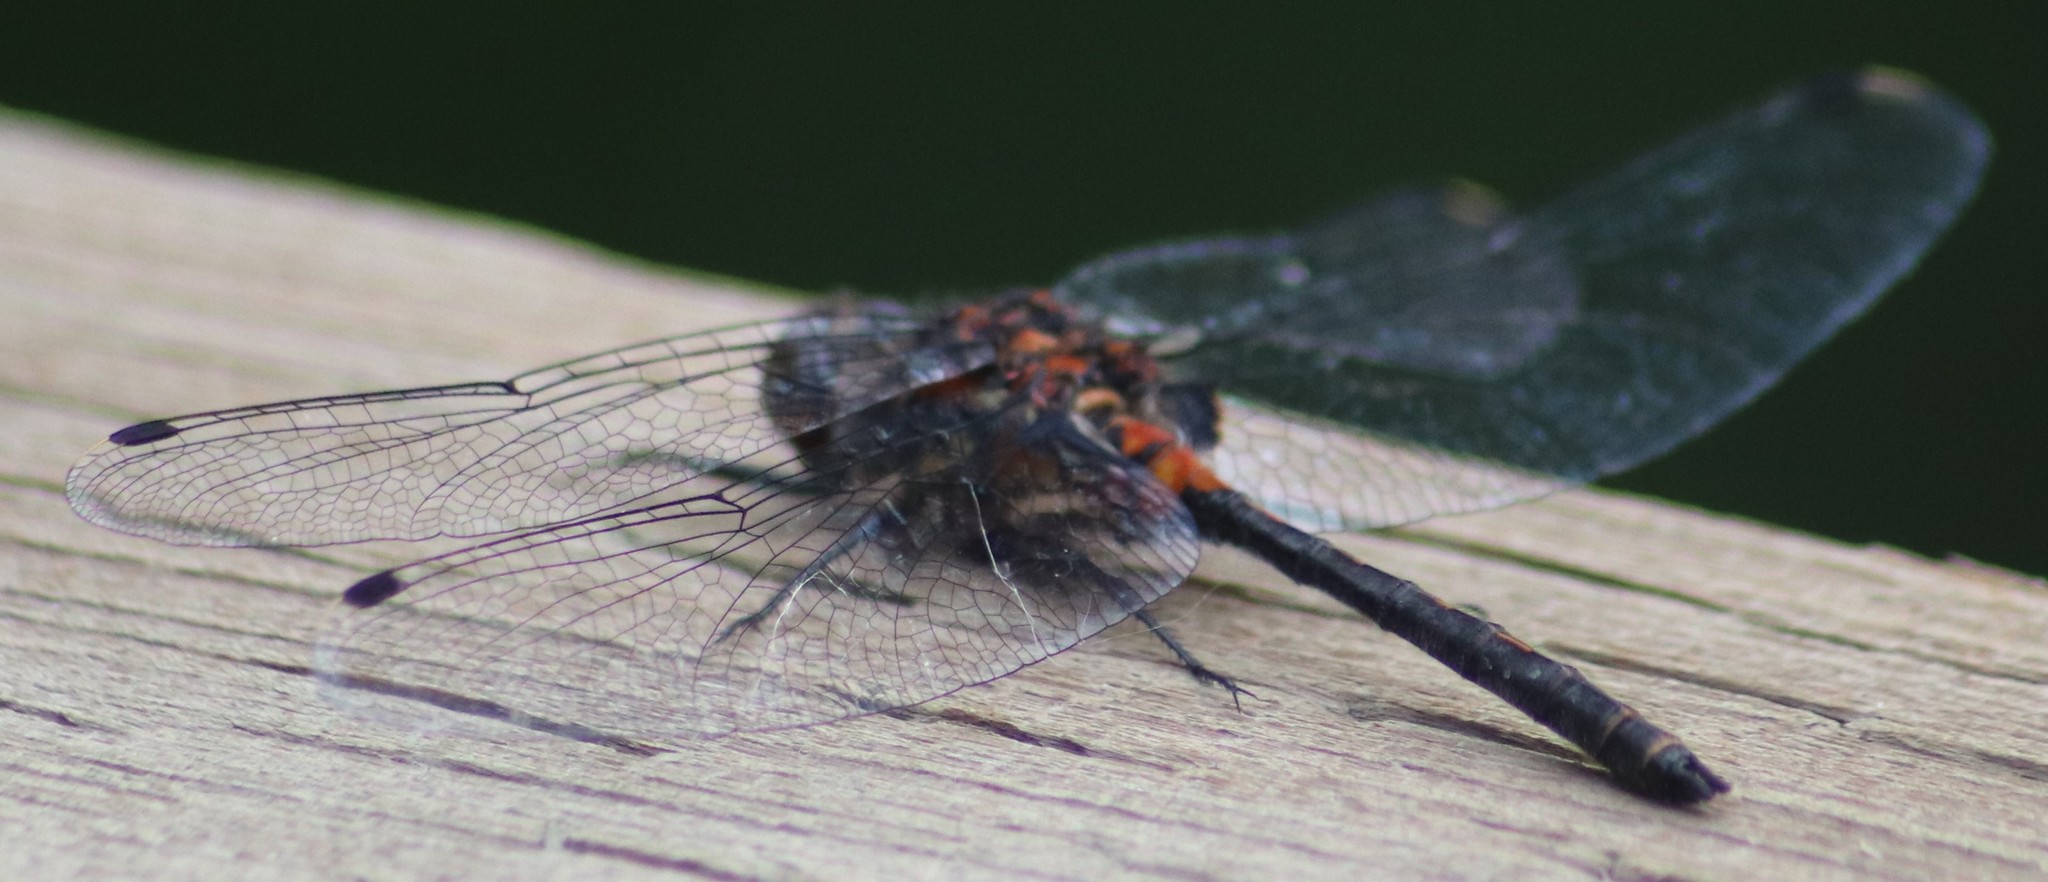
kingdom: Animalia
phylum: Arthropoda
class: Insecta
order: Odonata
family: Libellulidae
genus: Leucorrhinia
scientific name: Leucorrhinia proxima
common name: Belted whiteface
